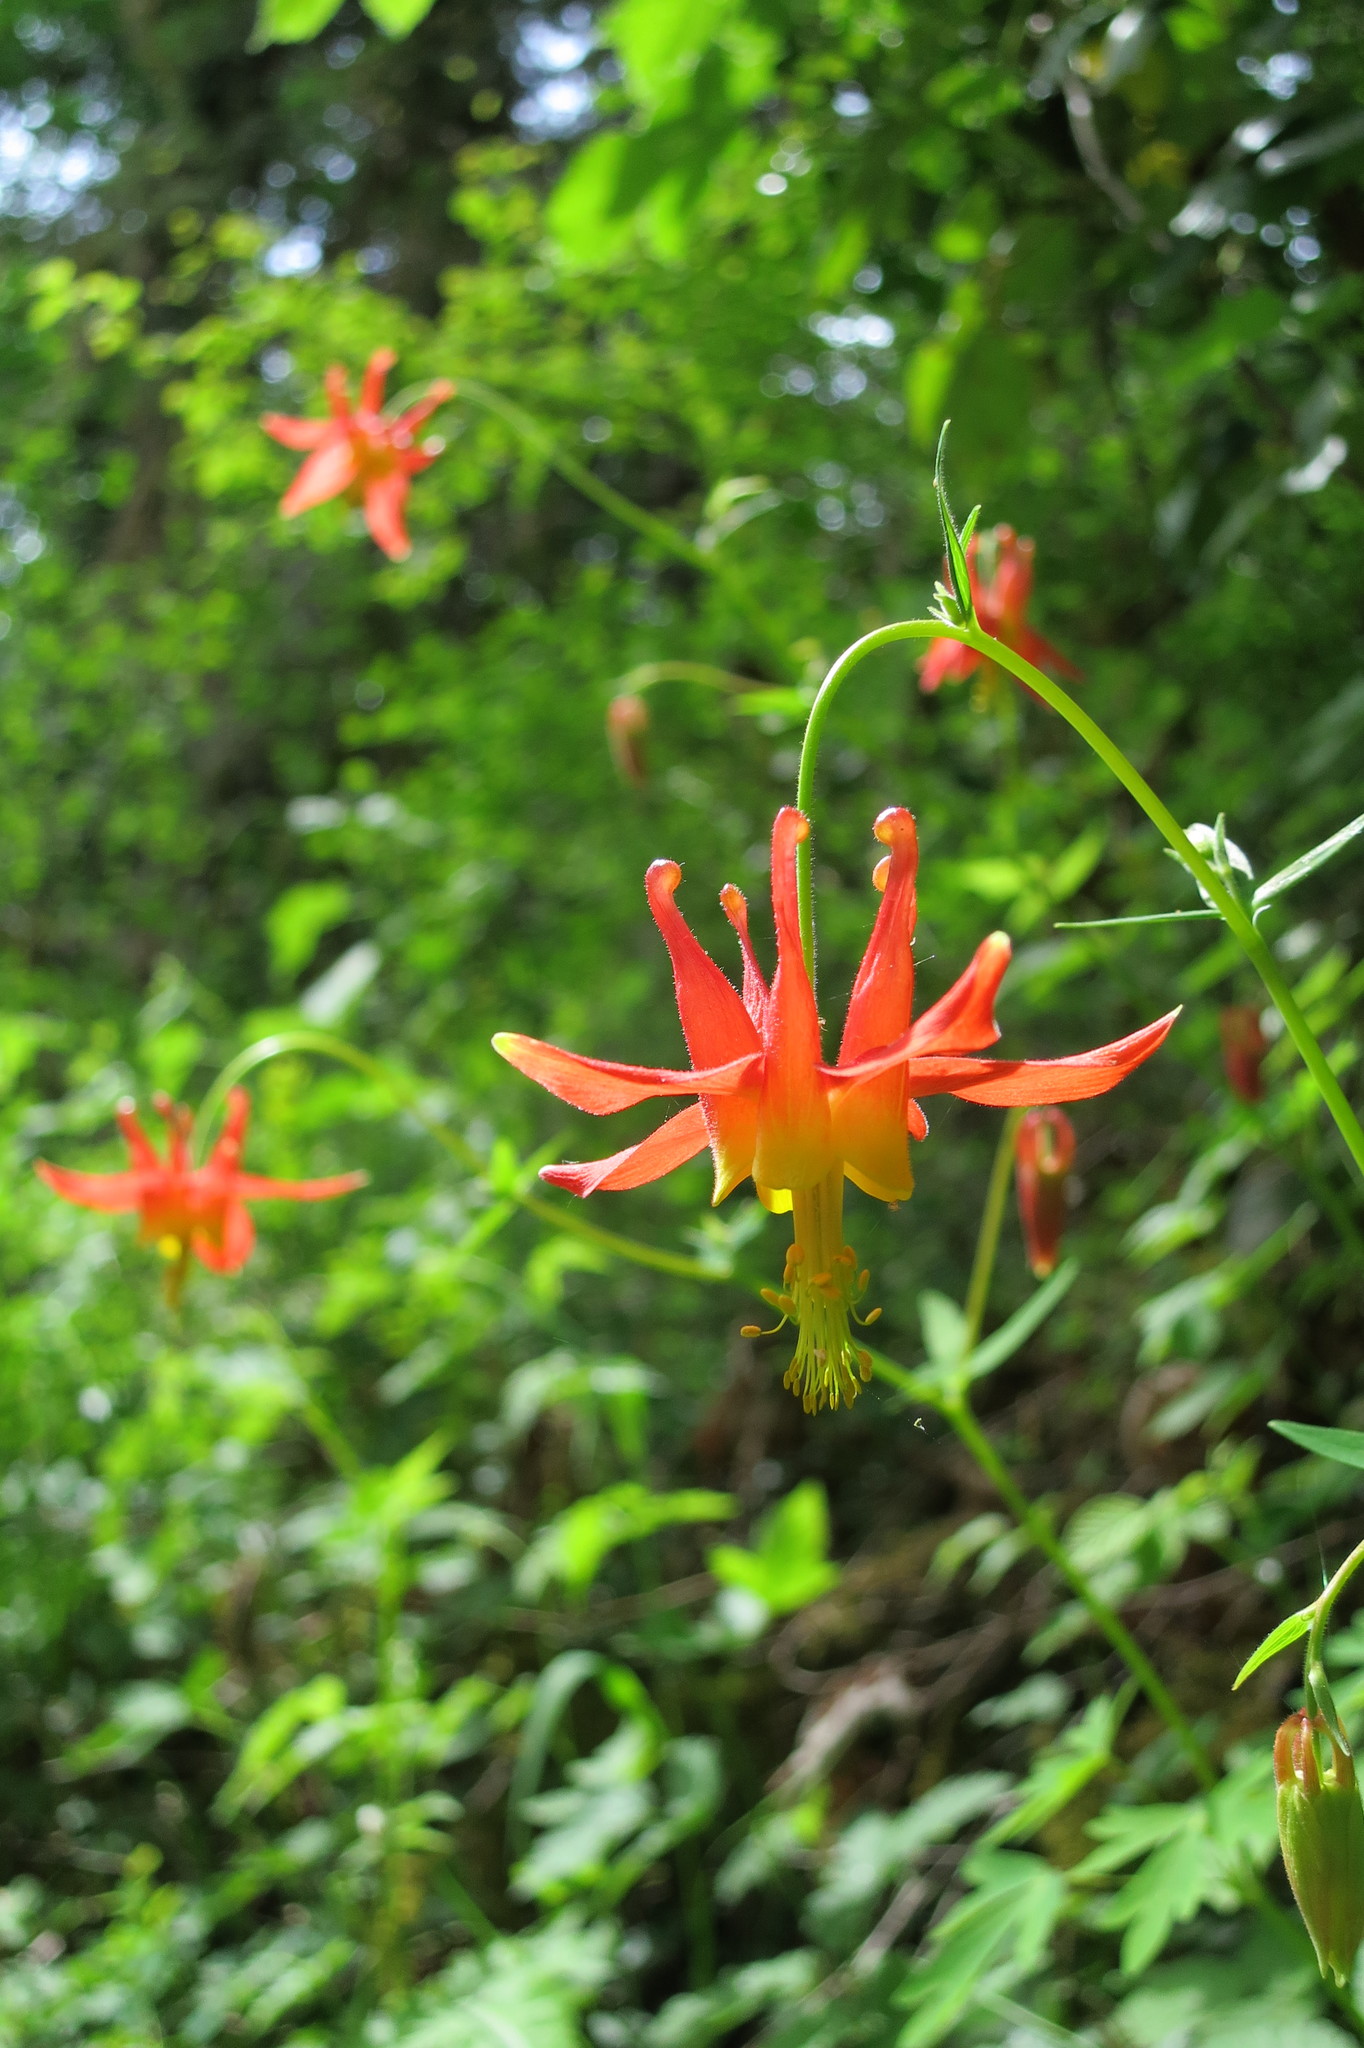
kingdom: Plantae
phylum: Tracheophyta
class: Magnoliopsida
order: Ranunculales
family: Ranunculaceae
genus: Aquilegia
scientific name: Aquilegia formosa
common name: Sitka columbine
